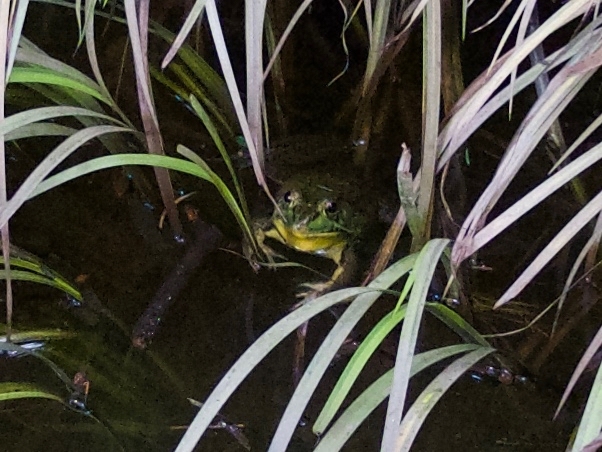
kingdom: Animalia
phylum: Chordata
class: Amphibia
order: Anura
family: Ranidae
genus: Lithobates
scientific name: Lithobates clamitans
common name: Green frog
